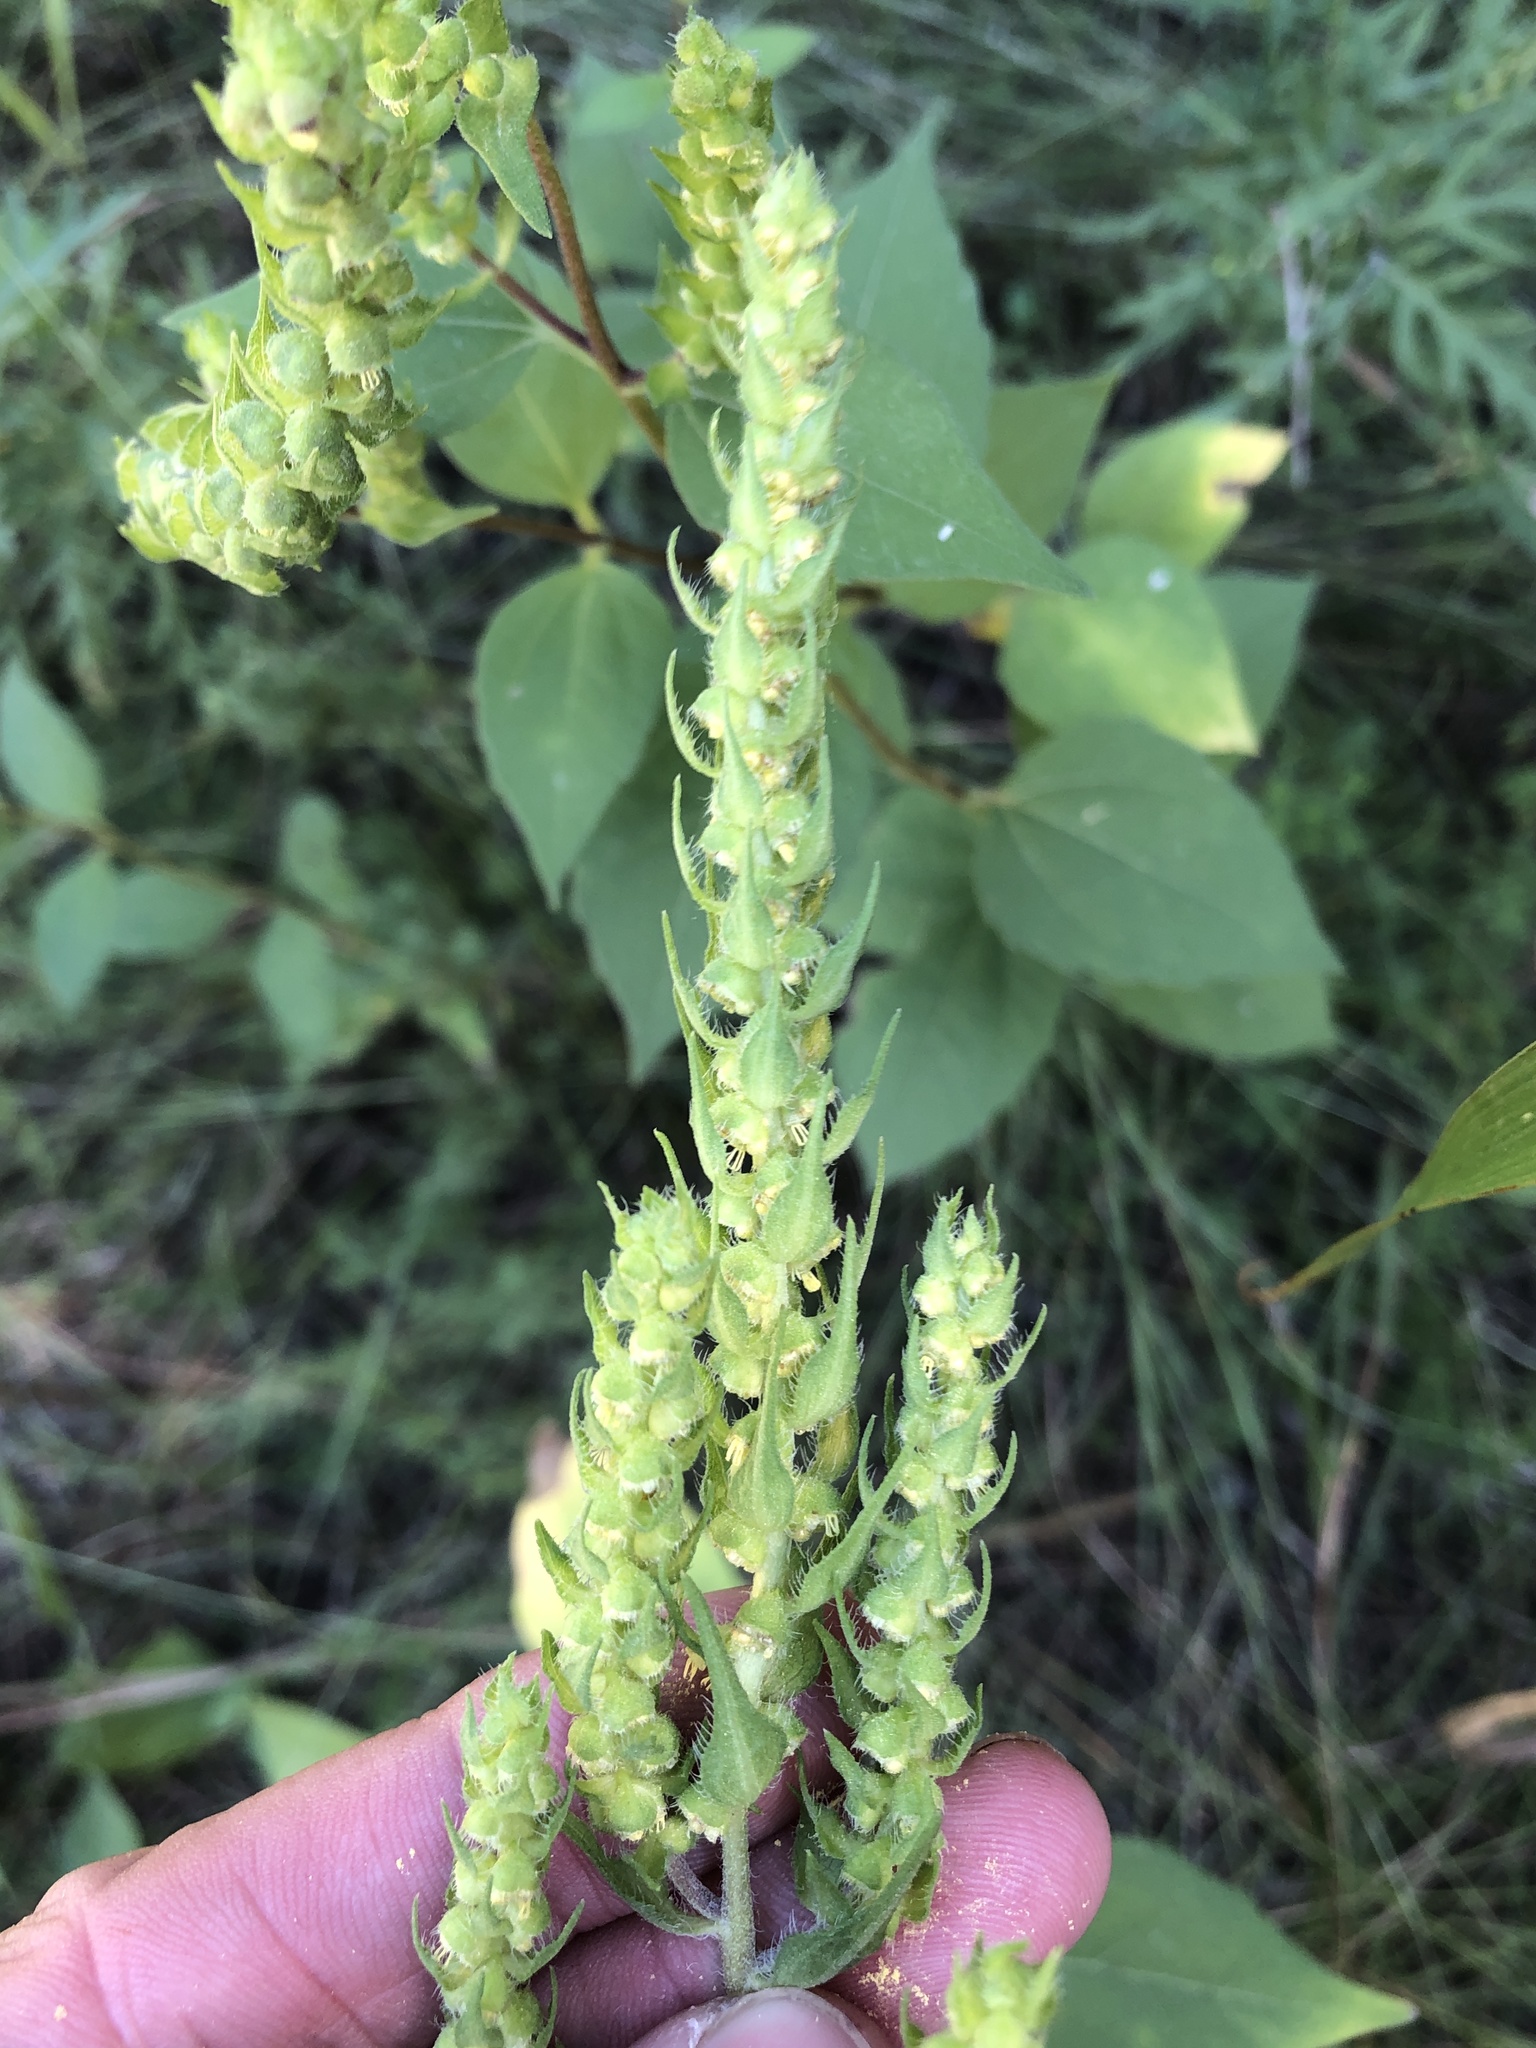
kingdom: Plantae
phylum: Tracheophyta
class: Magnoliopsida
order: Asterales
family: Asteraceae
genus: Iva
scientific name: Iva annua
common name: Marsh-elder
